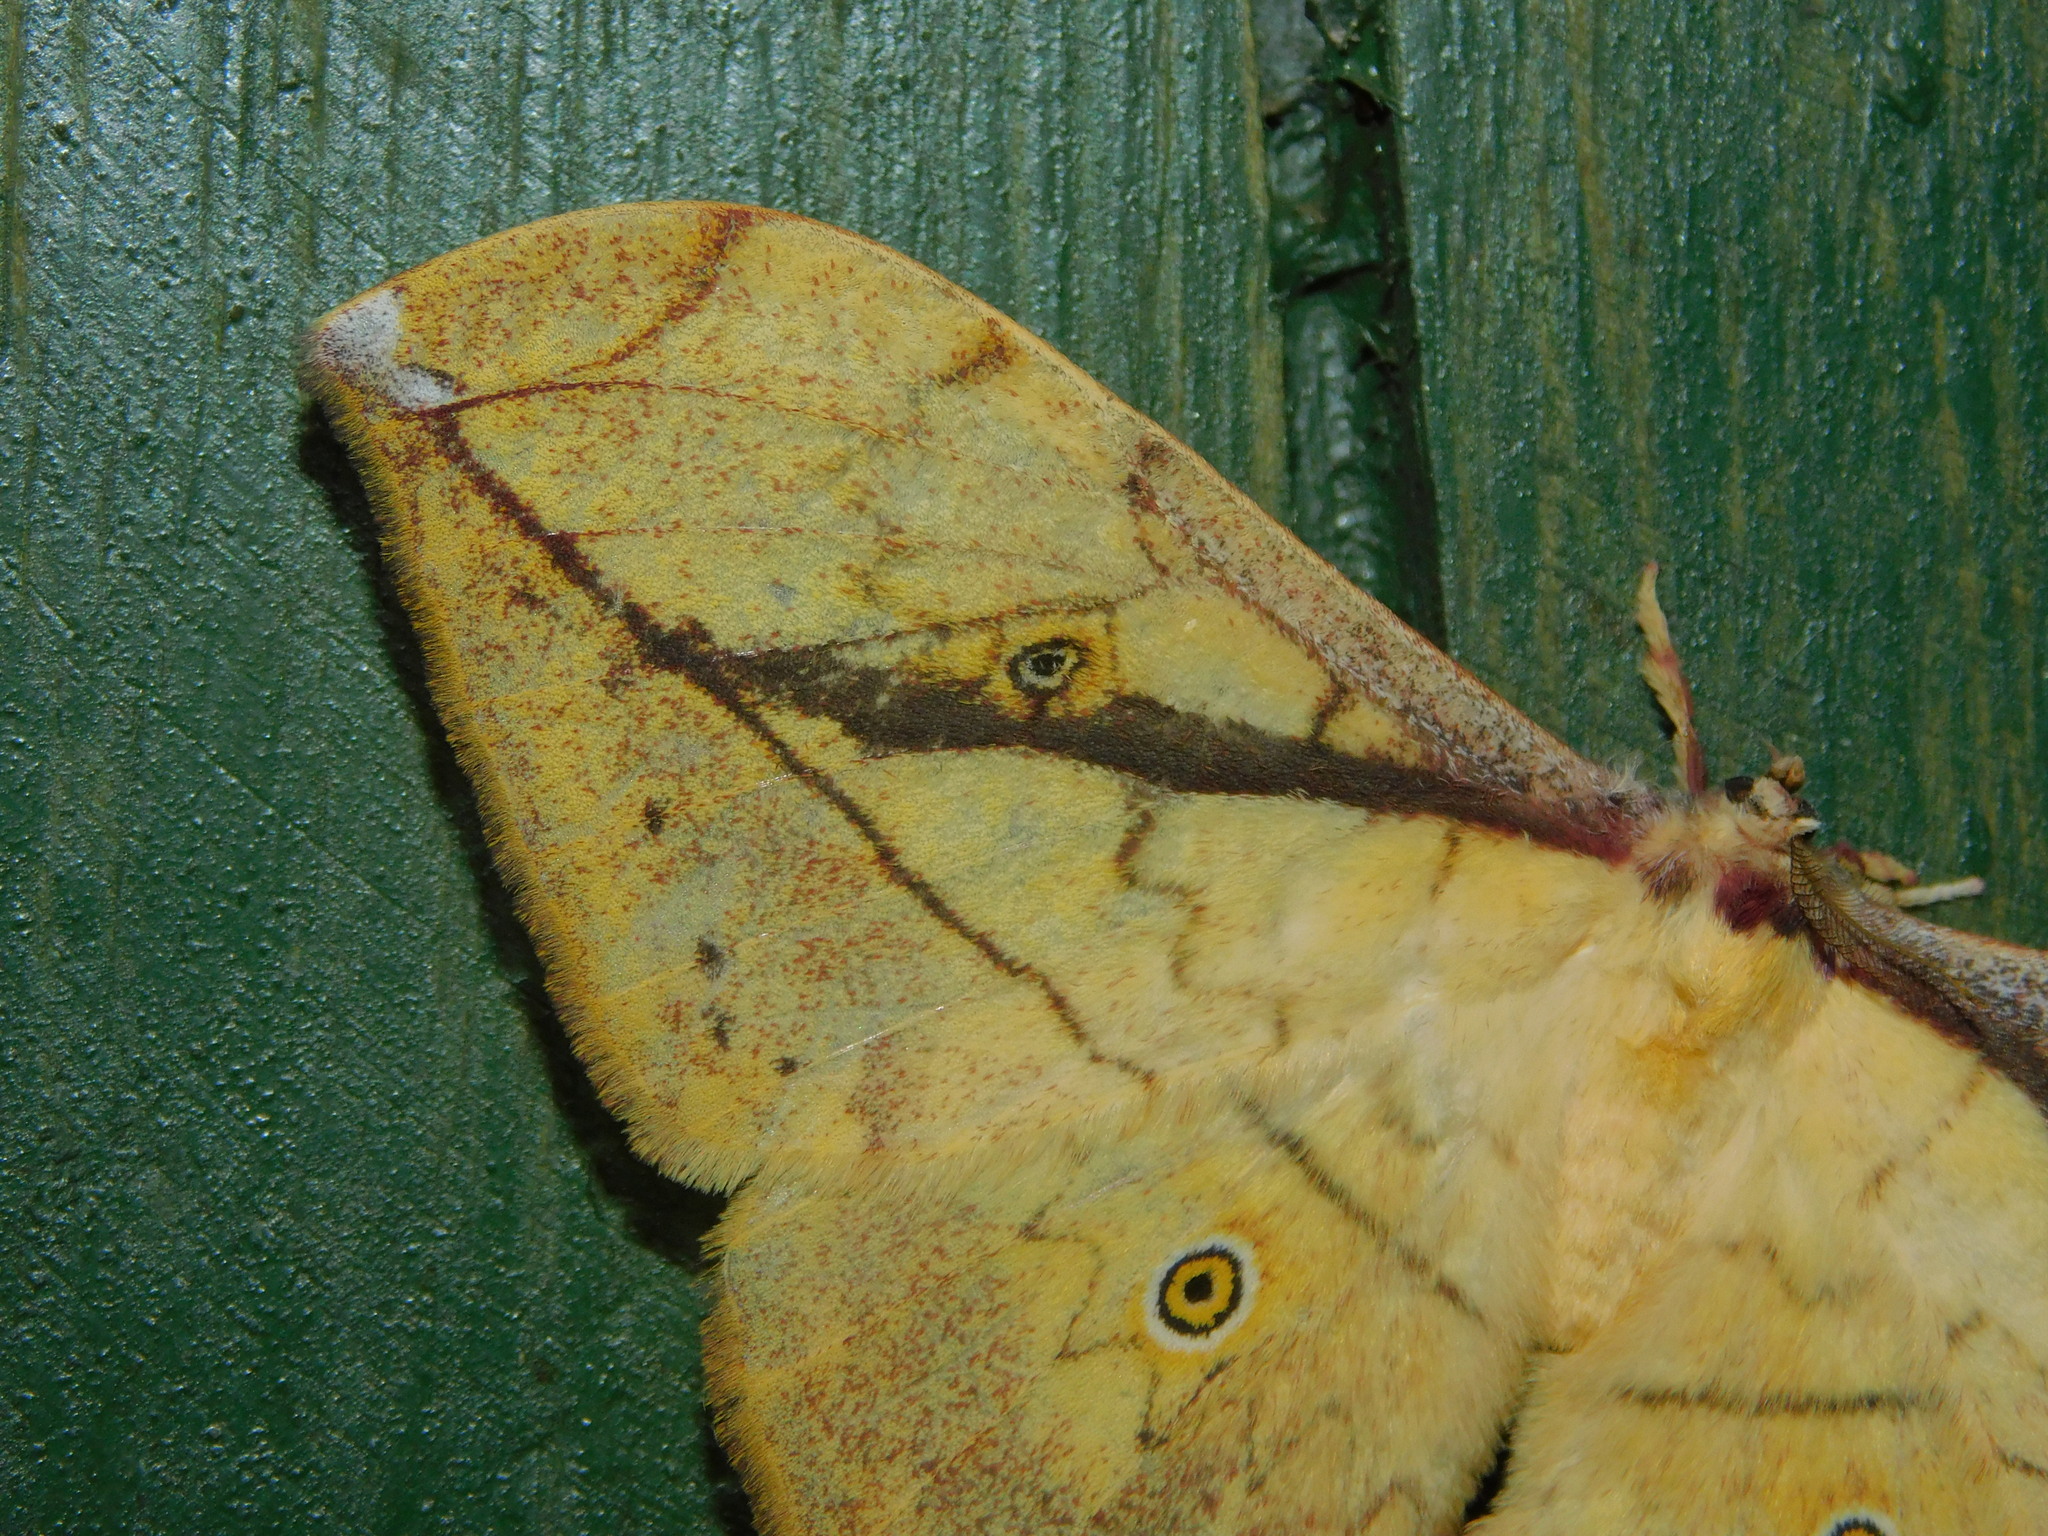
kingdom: Animalia
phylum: Arthropoda
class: Insecta
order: Lepidoptera
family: Saturniidae
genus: Pselaphelia
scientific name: Pselaphelia vingerhoedti
